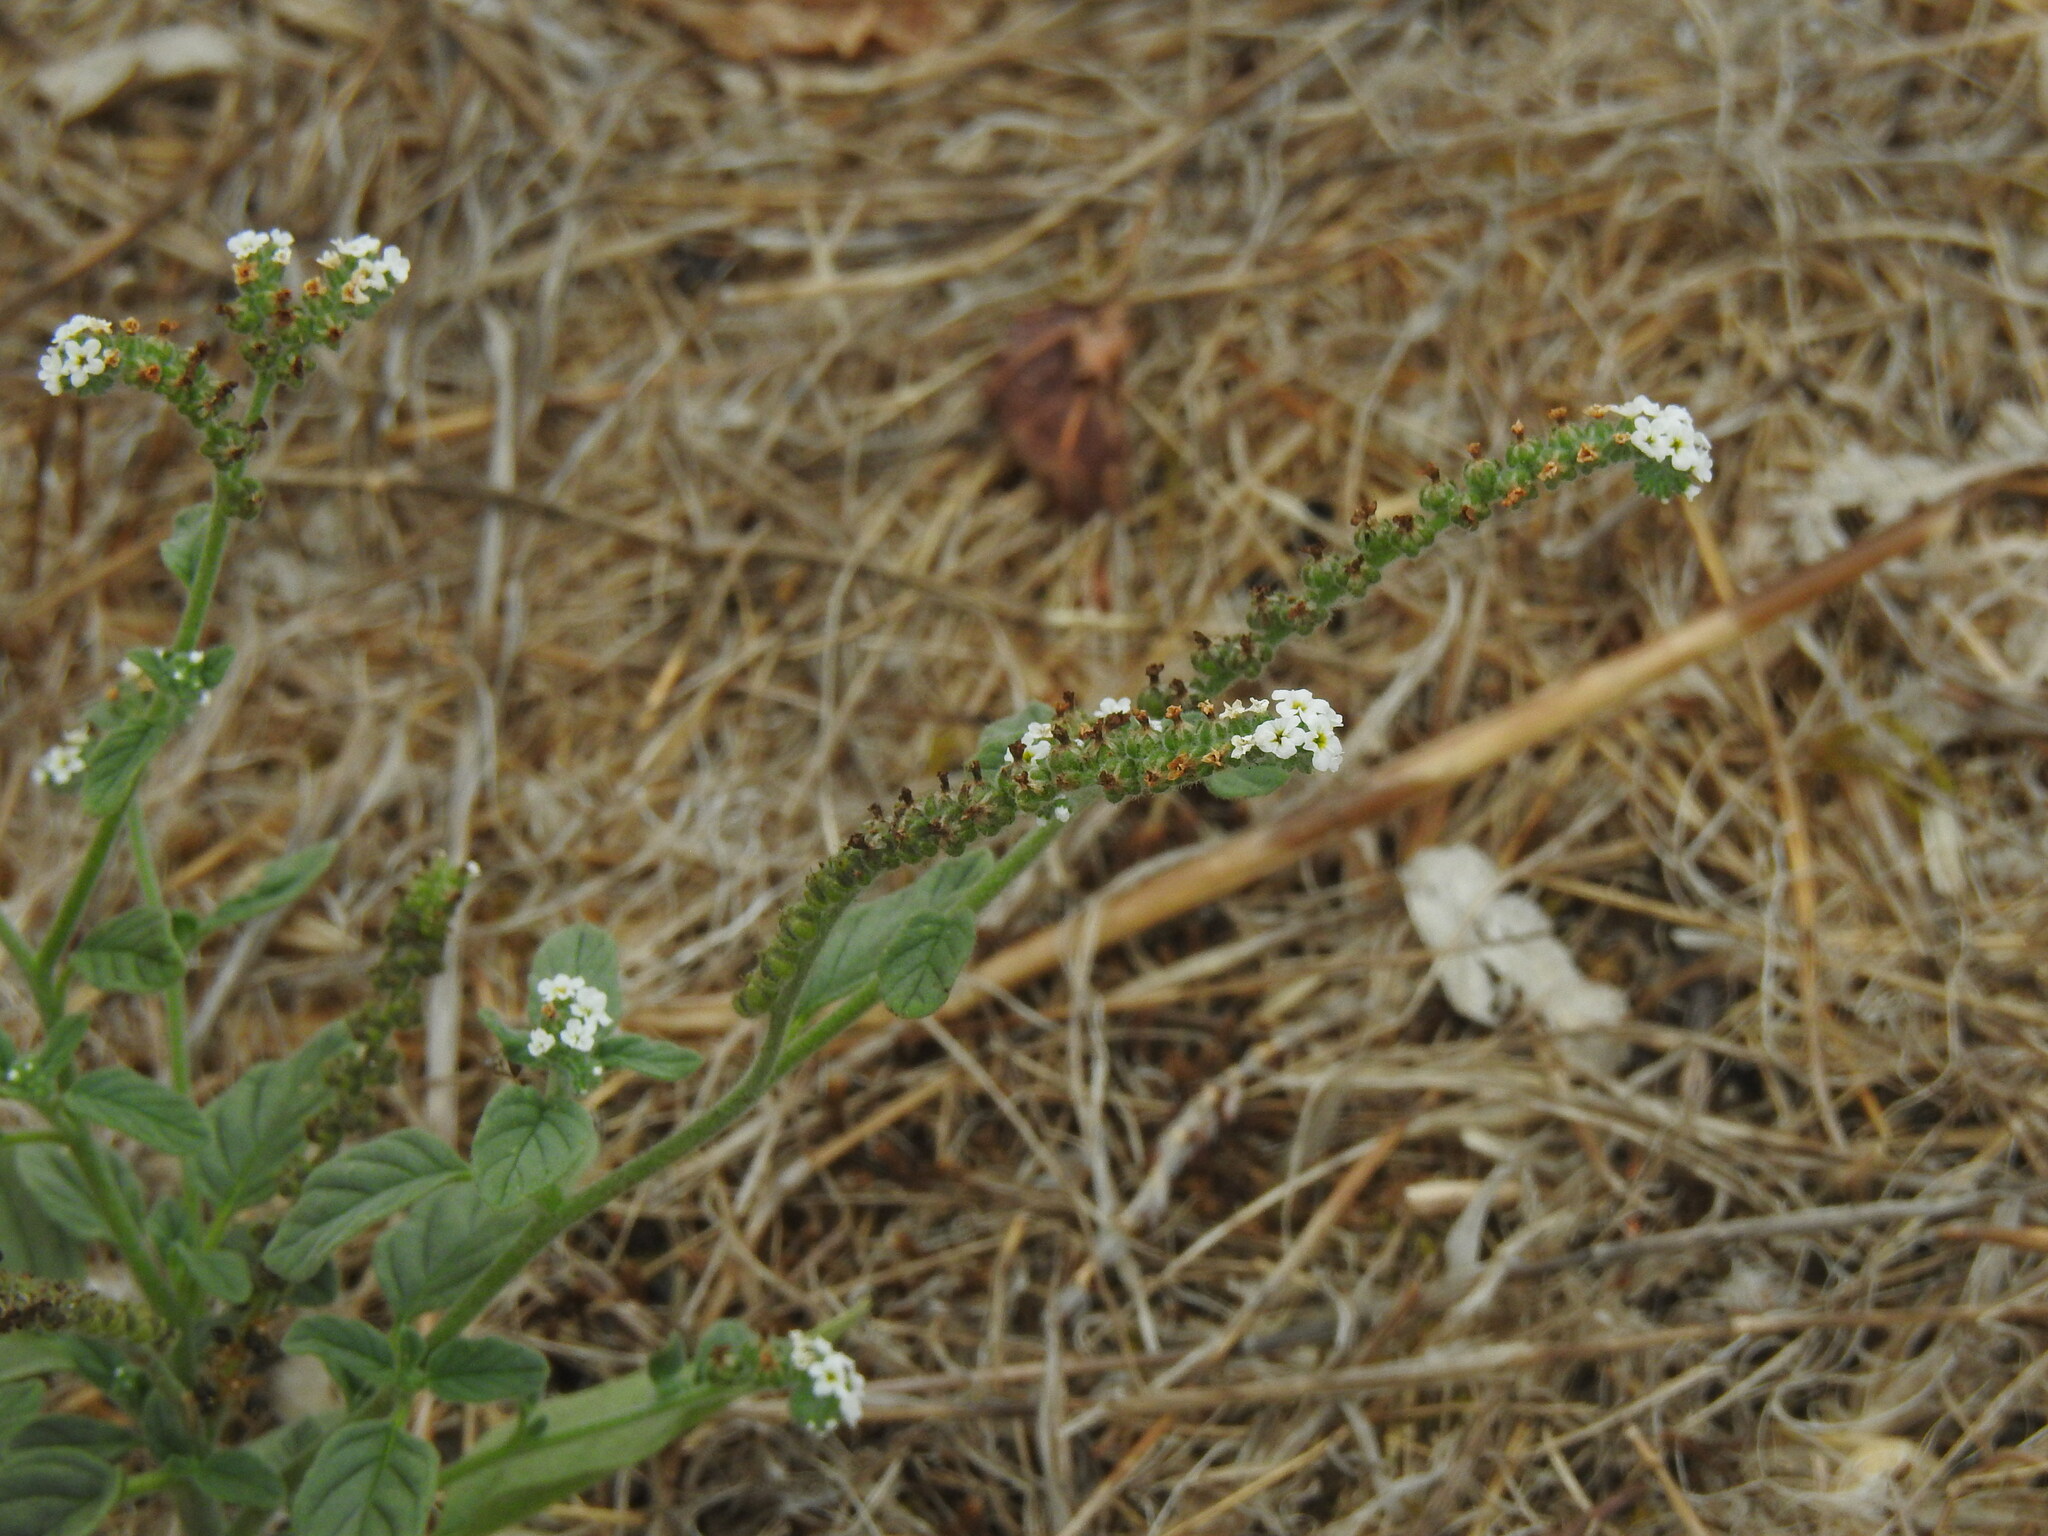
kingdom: Plantae
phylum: Tracheophyta
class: Magnoliopsida
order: Boraginales
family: Heliotropiaceae
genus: Heliotropium
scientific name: Heliotropium europaeum
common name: European heliotrope
